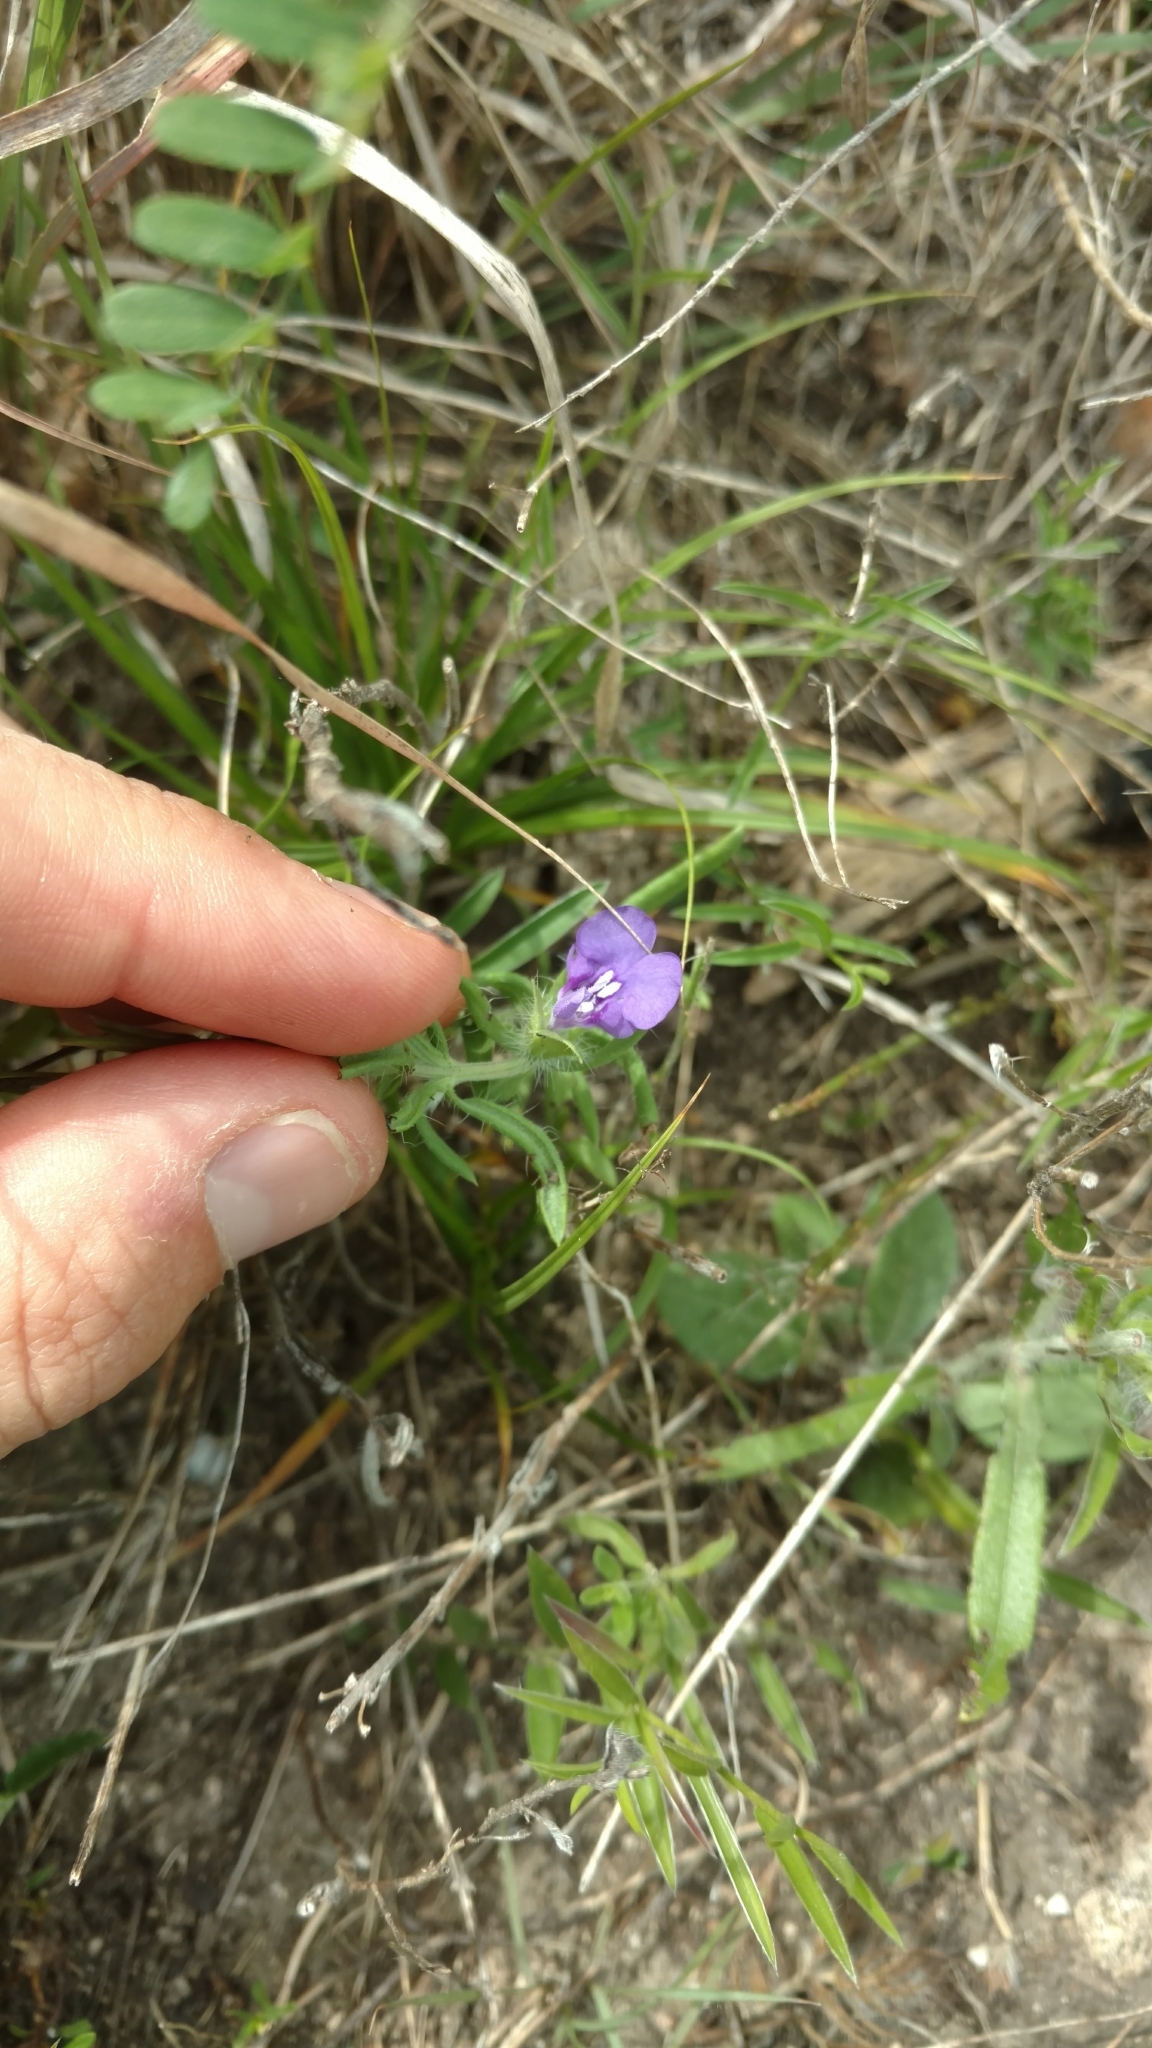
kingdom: Plantae
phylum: Tracheophyta
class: Magnoliopsida
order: Lamiales
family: Lamiaceae
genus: Salvia
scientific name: Salvia texana
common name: Texas sage
